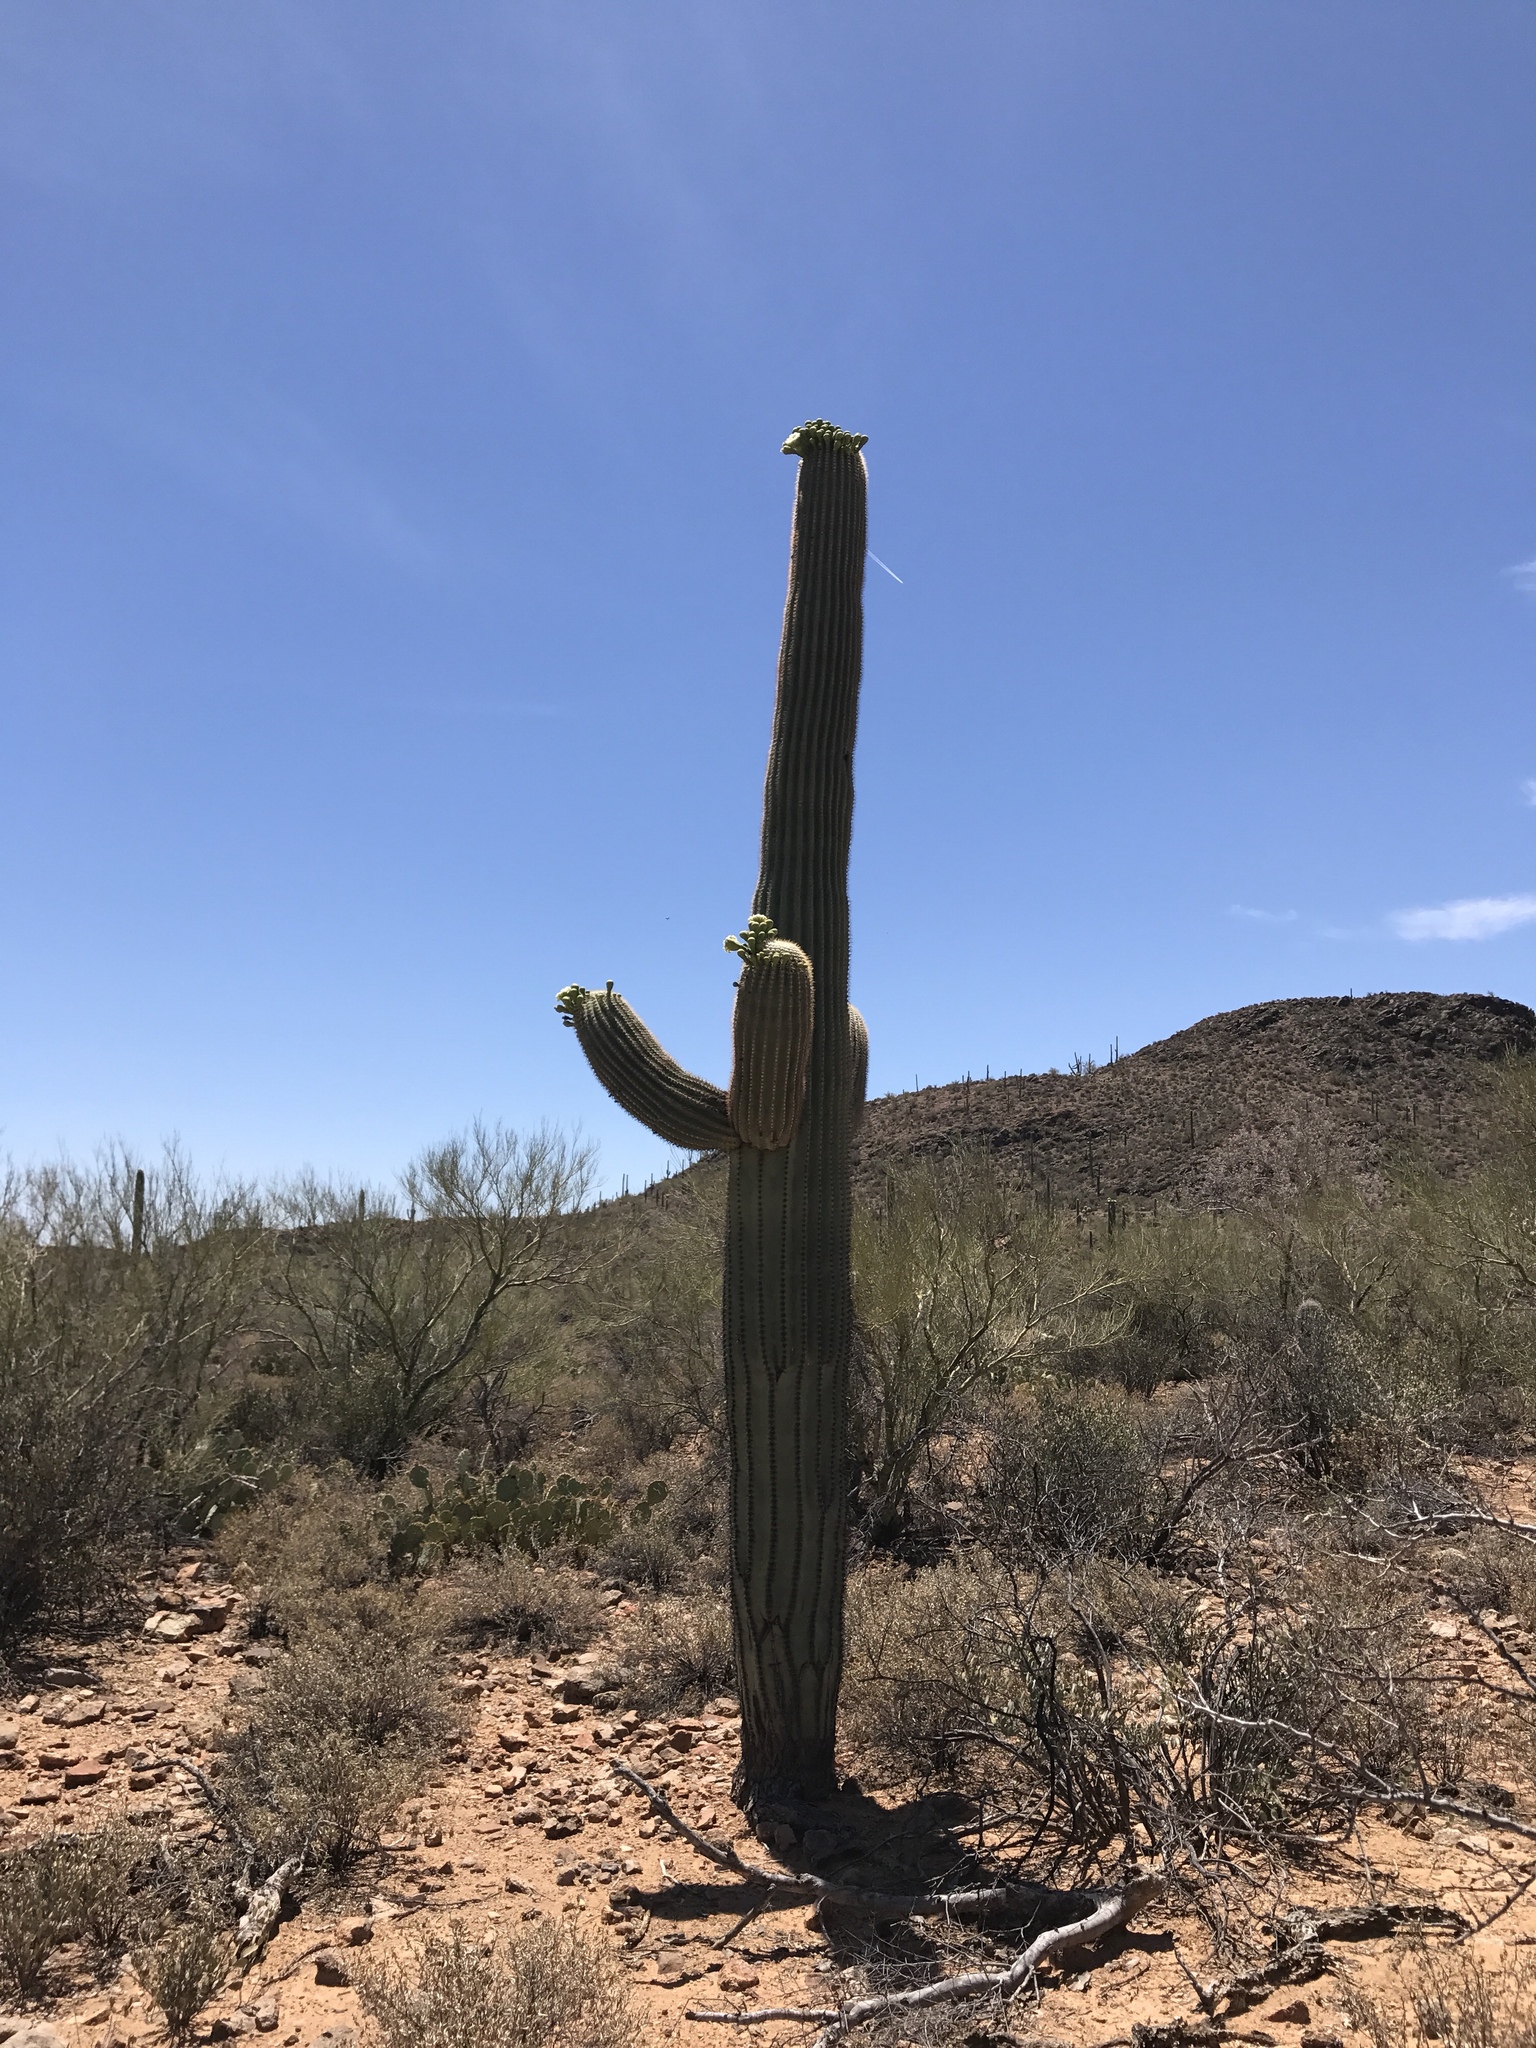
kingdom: Plantae
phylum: Tracheophyta
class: Magnoliopsida
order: Caryophyllales
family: Cactaceae
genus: Carnegiea
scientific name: Carnegiea gigantea
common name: Saguaro
